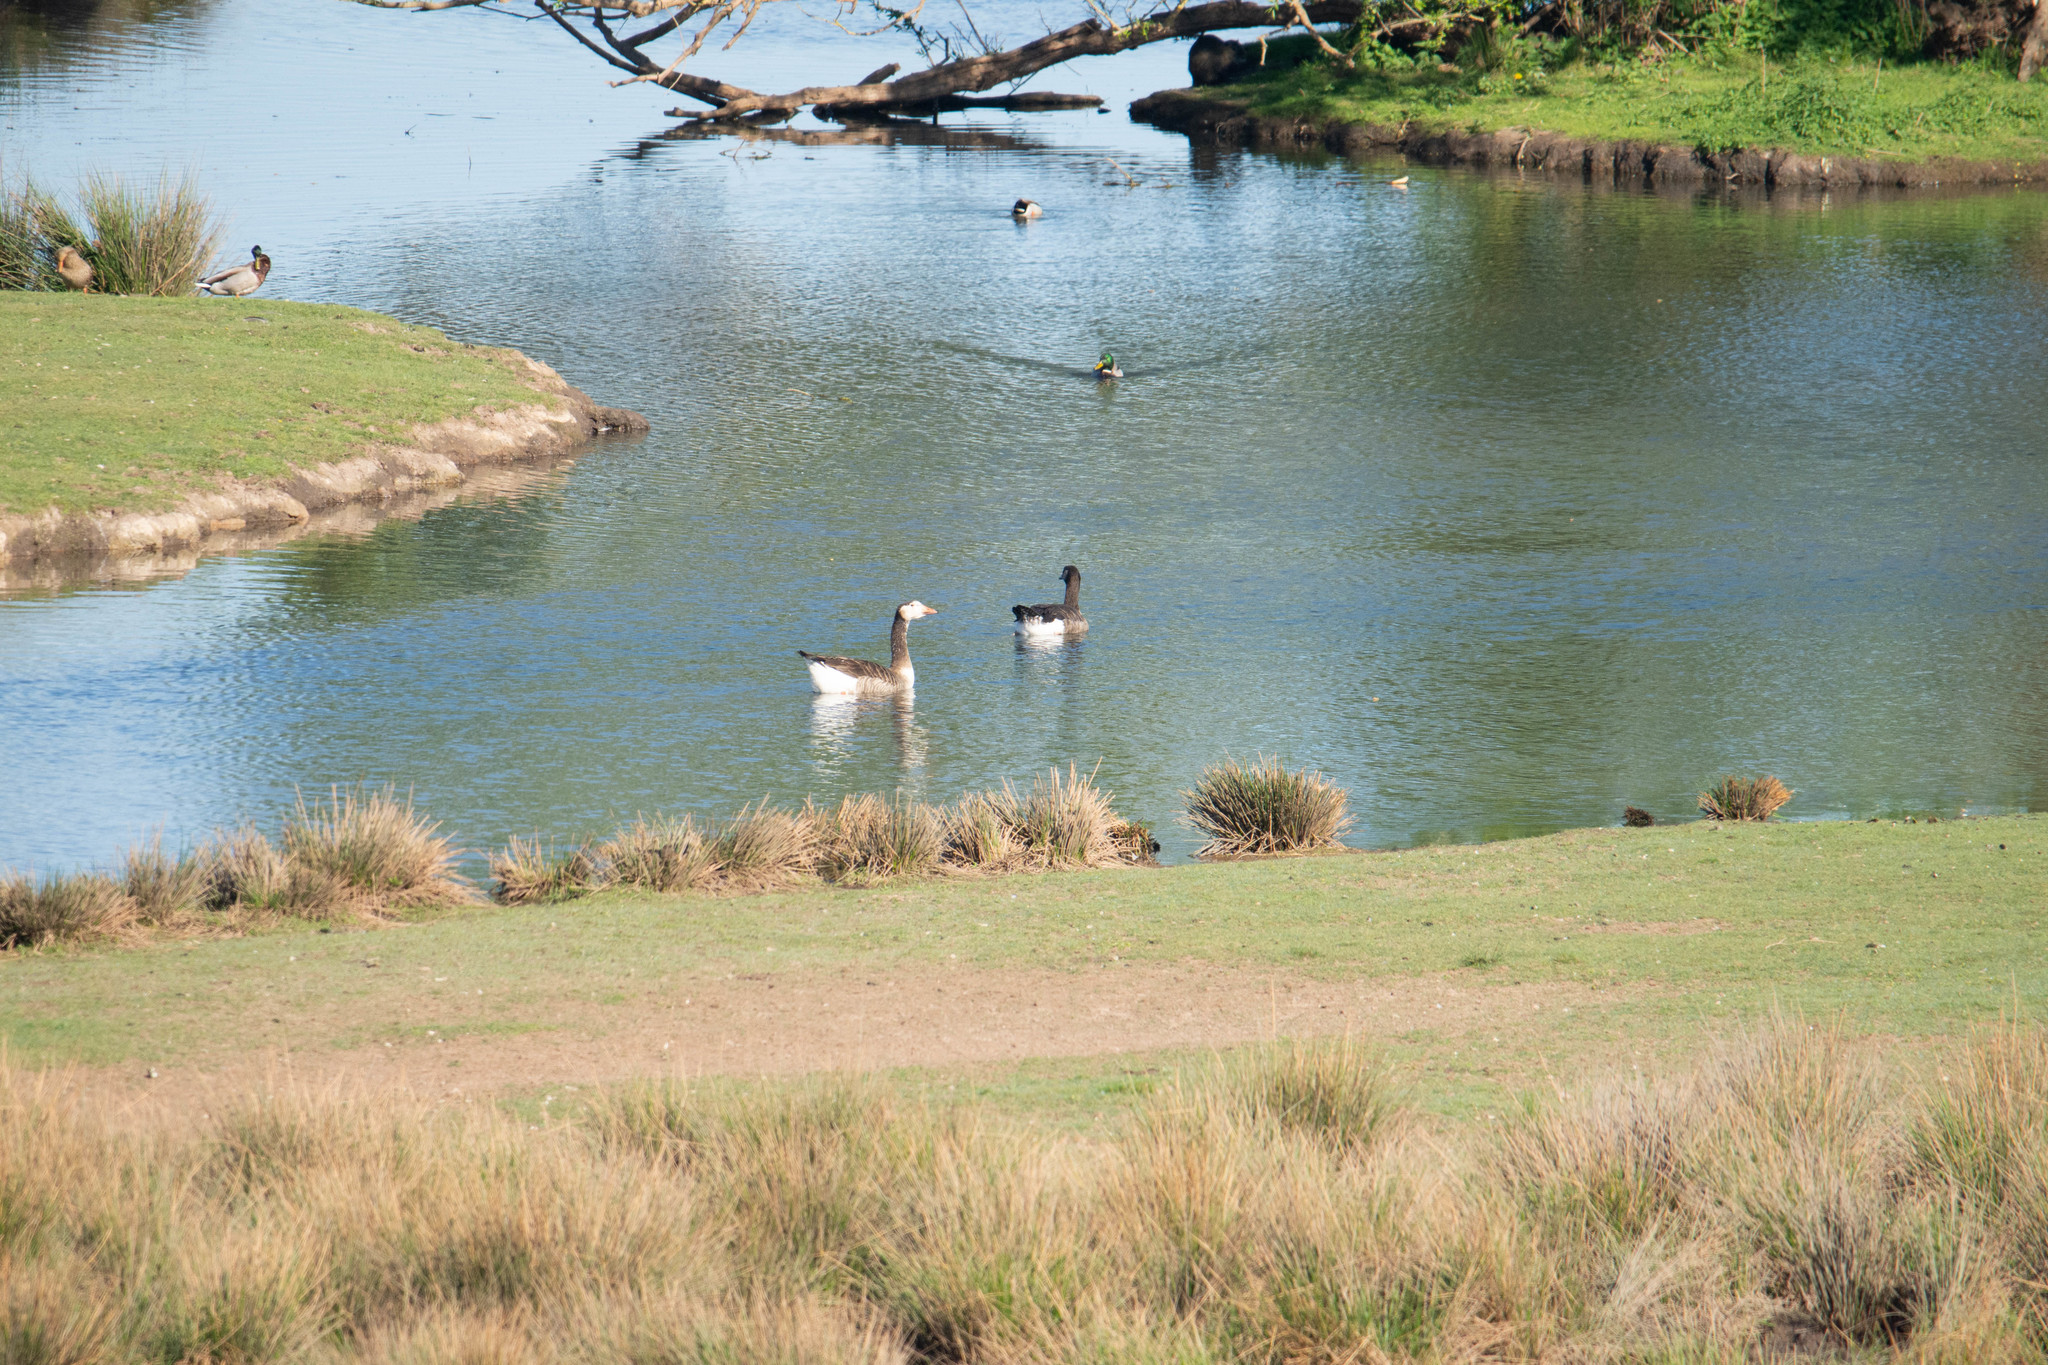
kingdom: Animalia
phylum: Chordata
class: Aves
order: Anseriformes
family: Anatidae
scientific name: Anatidae
